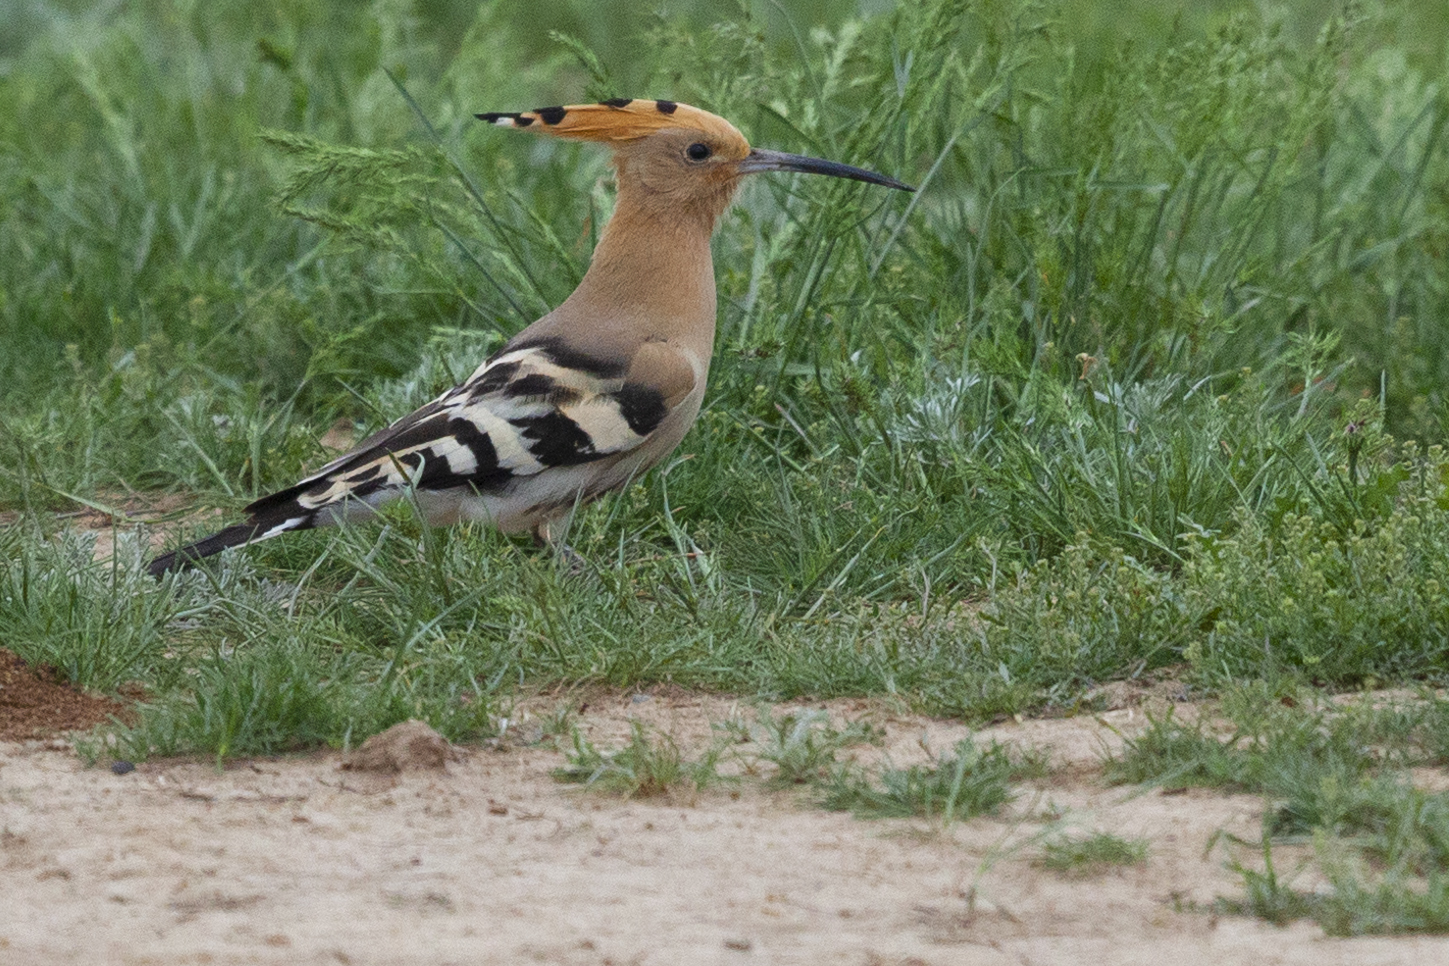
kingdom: Animalia
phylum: Chordata
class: Aves
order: Bucerotiformes
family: Upupidae
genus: Upupa
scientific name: Upupa epops
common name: Eurasian hoopoe
